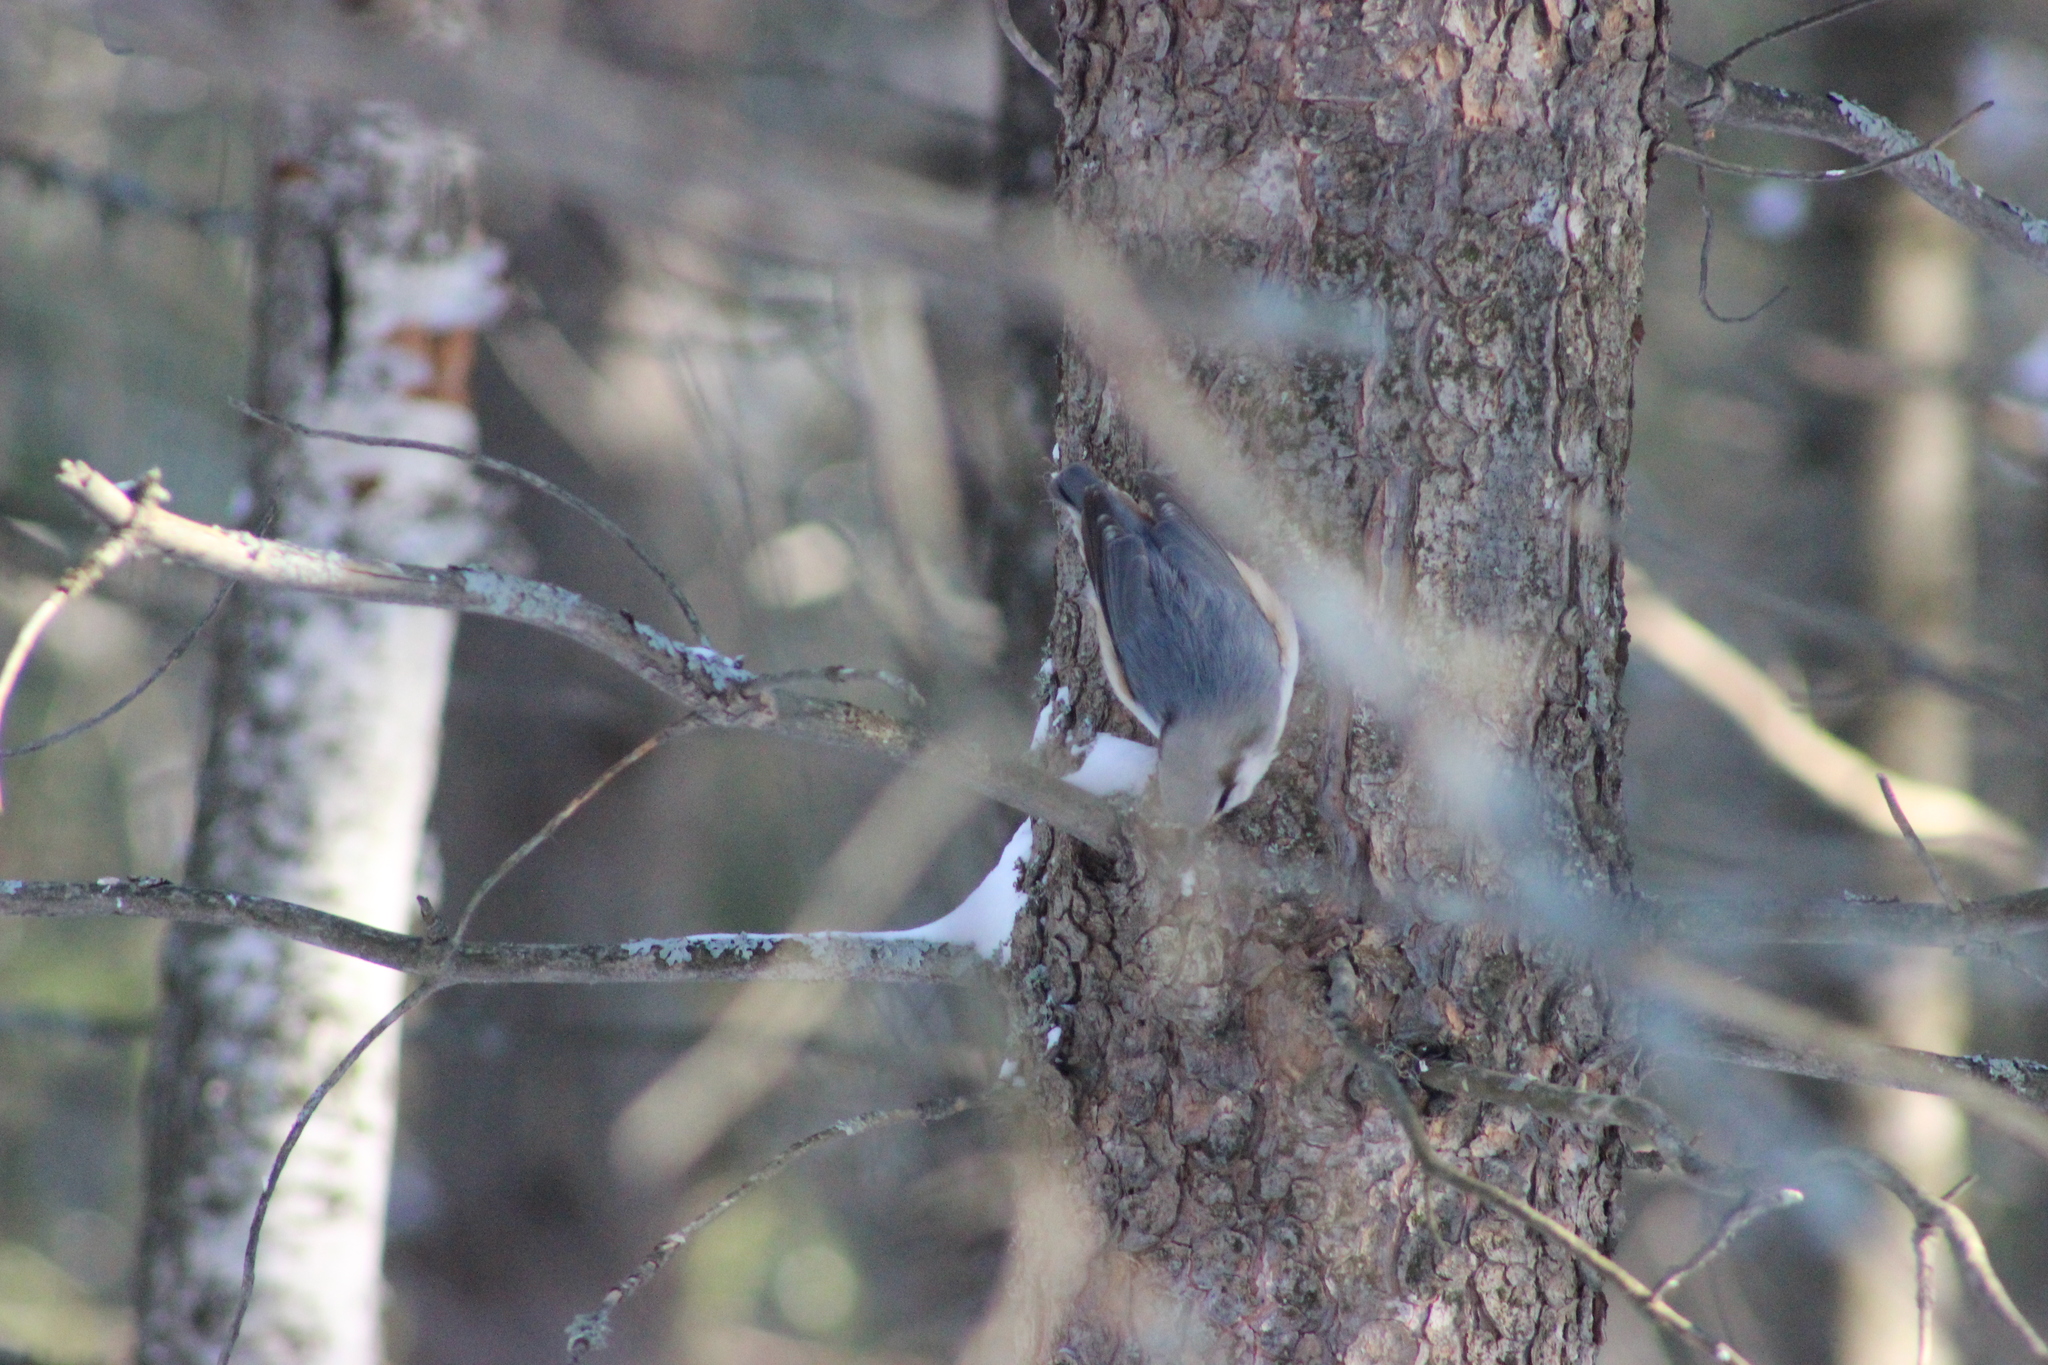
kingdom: Animalia
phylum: Chordata
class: Aves
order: Passeriformes
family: Sittidae
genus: Sitta
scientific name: Sitta europaea
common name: Eurasian nuthatch
